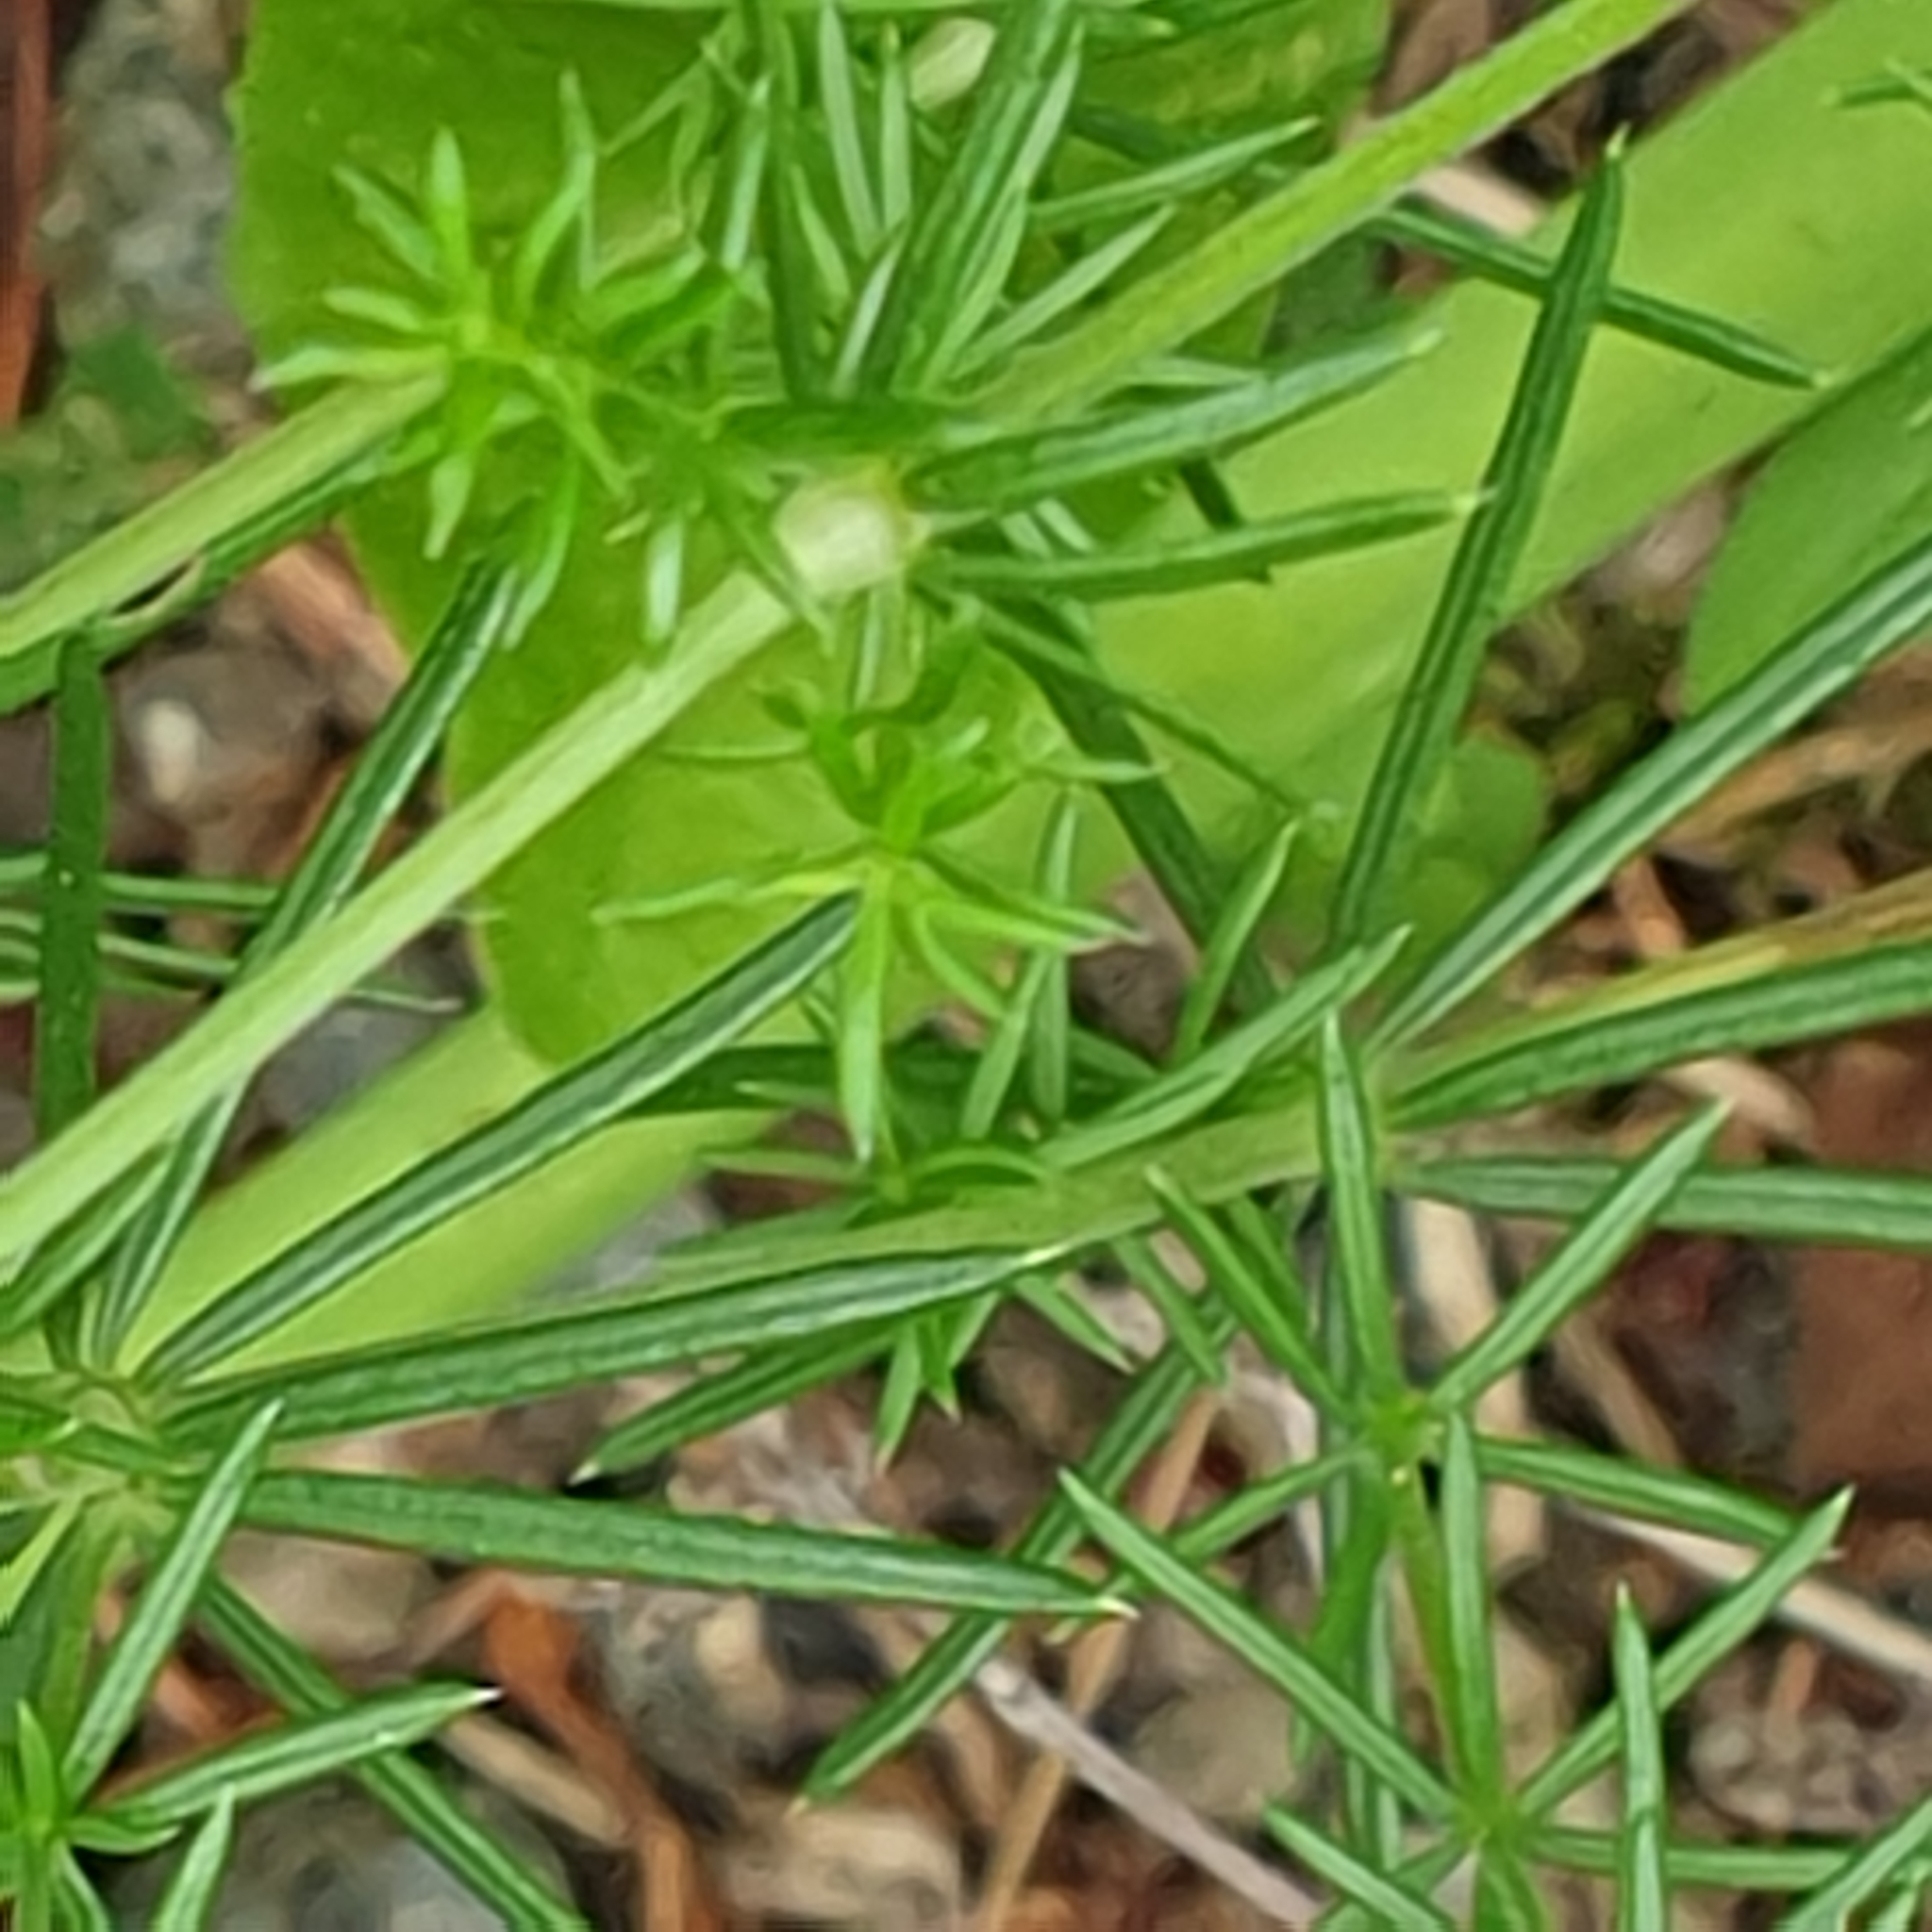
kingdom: Plantae
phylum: Tracheophyta
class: Magnoliopsida
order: Gentianales
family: Rubiaceae
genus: Galium
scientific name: Galium verum
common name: Lady's bedstraw
